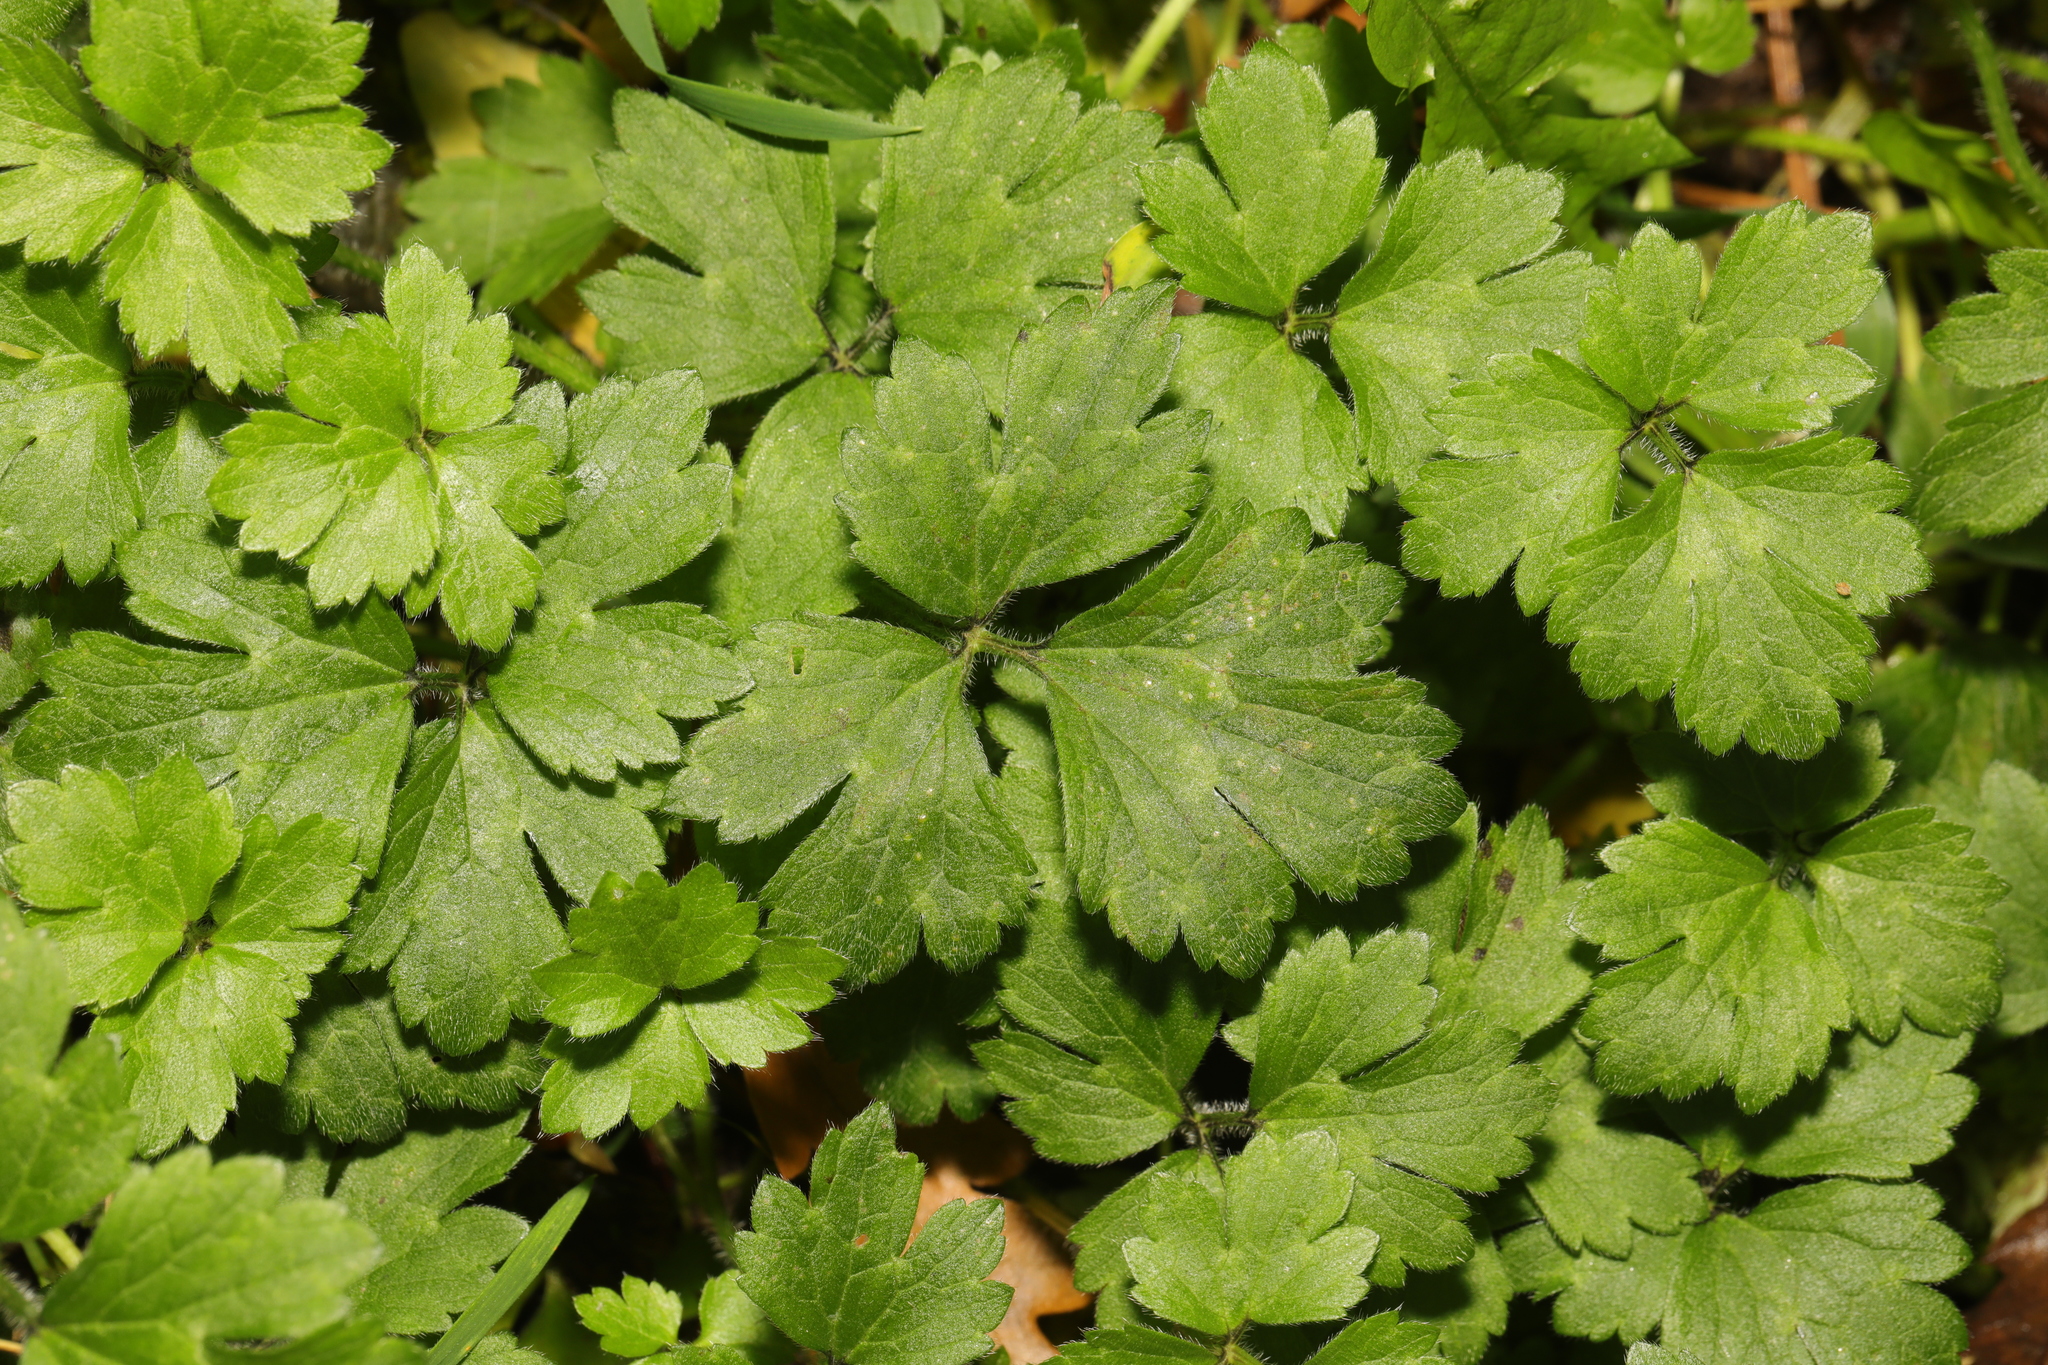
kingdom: Plantae
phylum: Tracheophyta
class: Magnoliopsida
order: Ranunculales
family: Ranunculaceae
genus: Ranunculus
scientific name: Ranunculus repens
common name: Creeping buttercup
